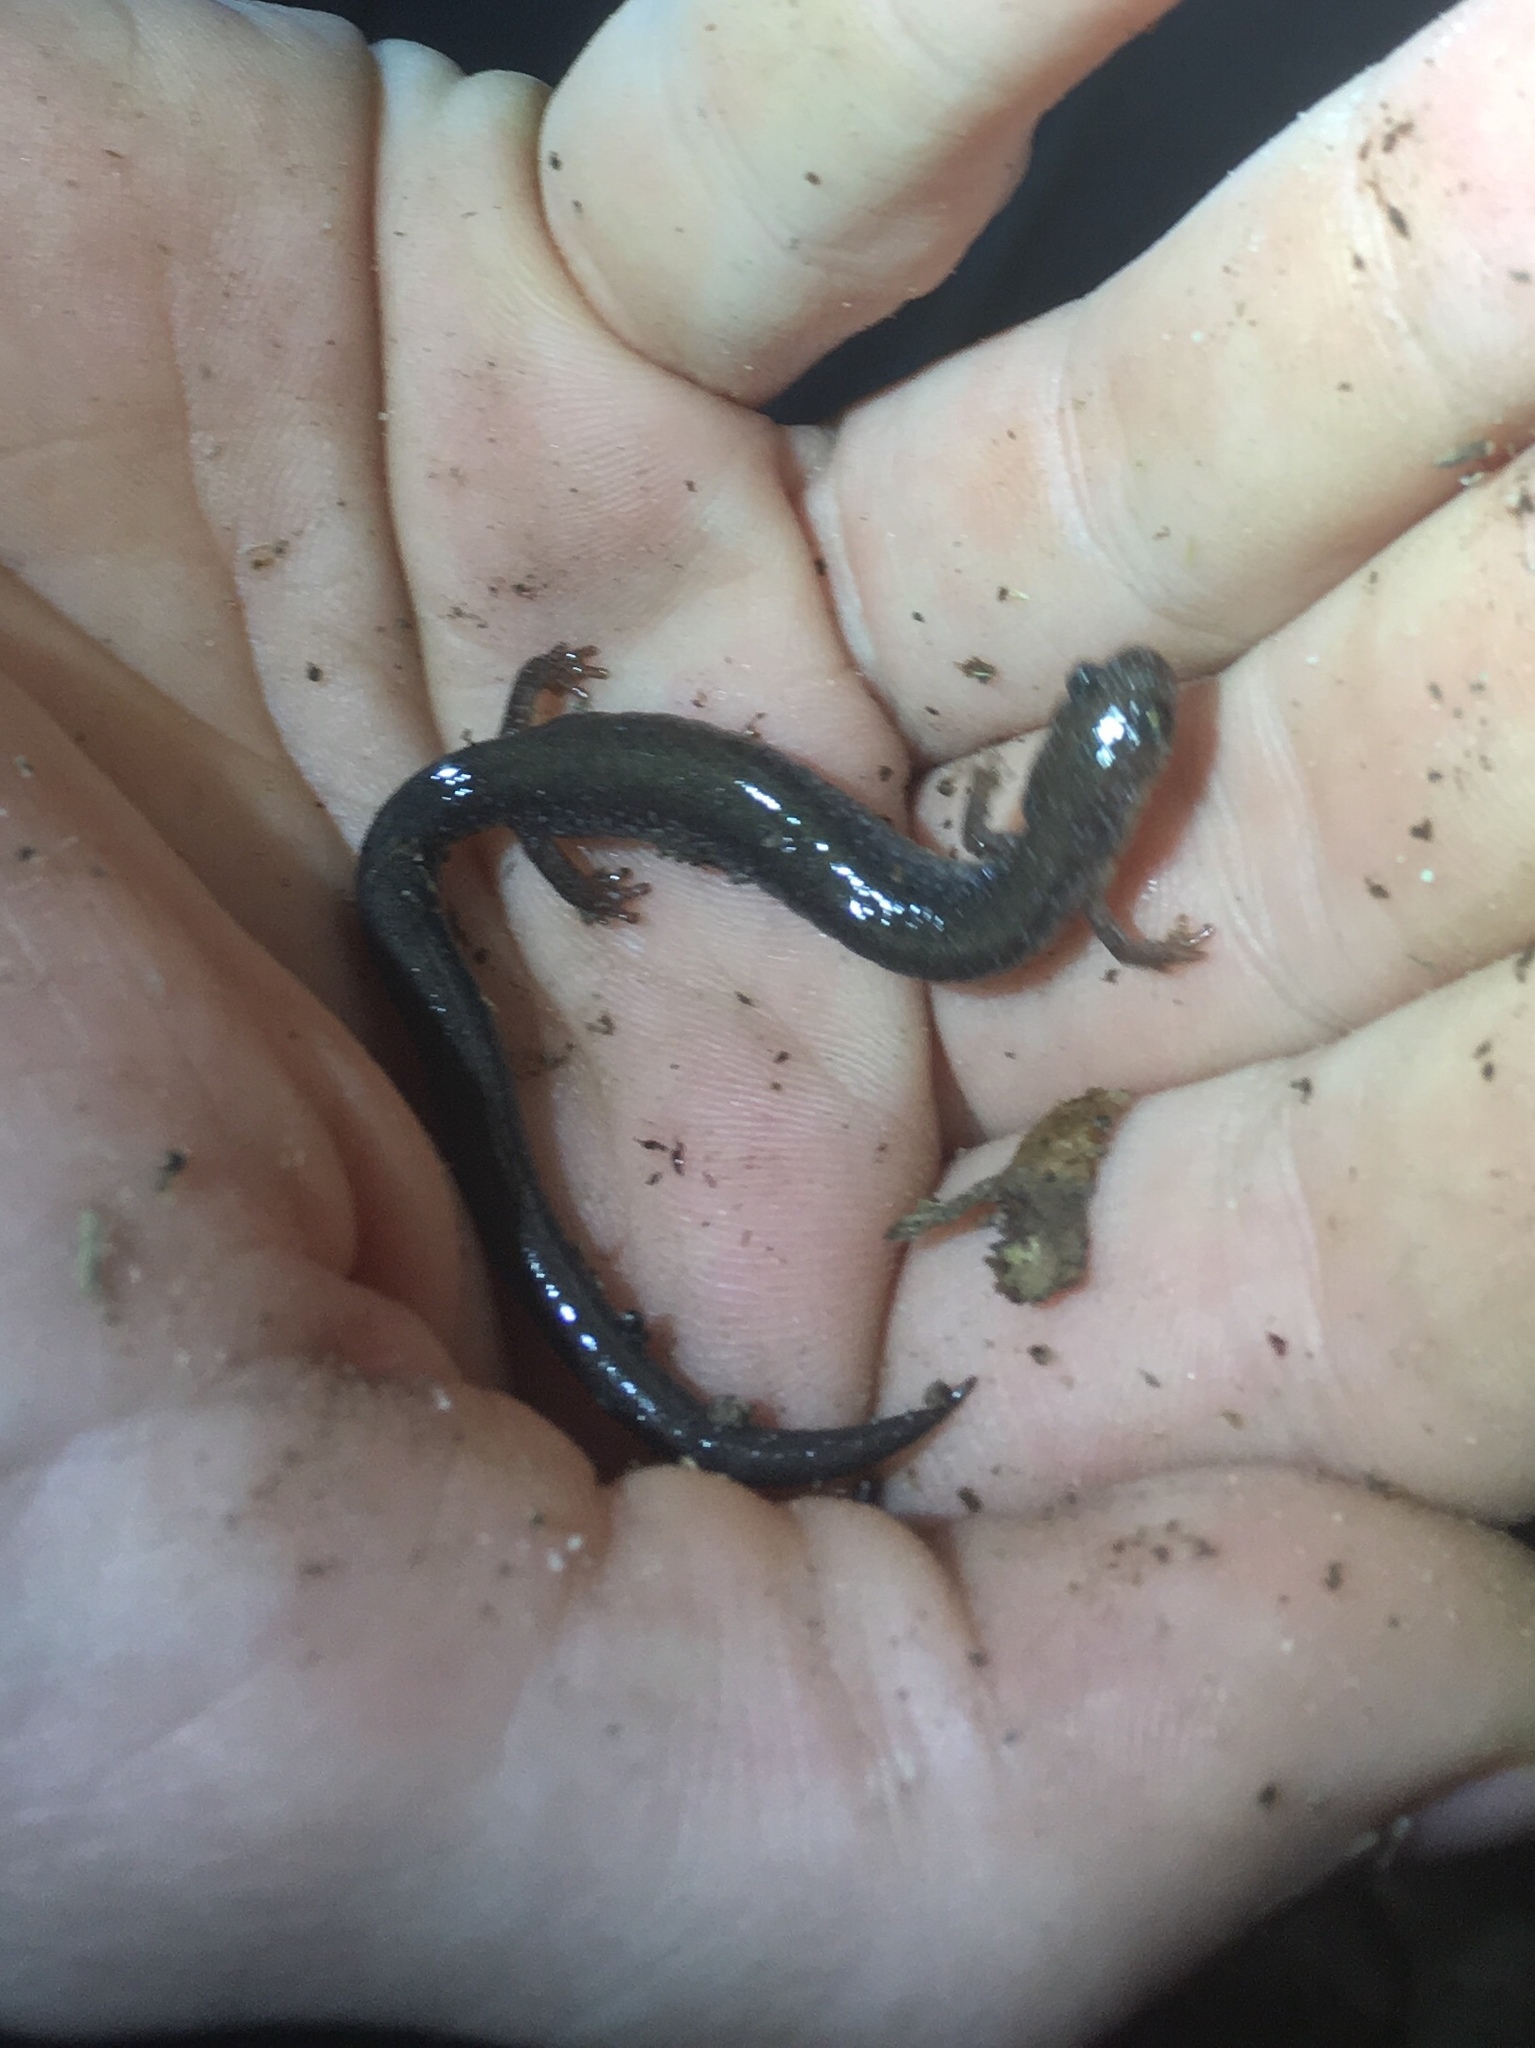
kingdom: Animalia
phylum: Chordata
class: Amphibia
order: Caudata
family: Plethodontidae
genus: Plethodon
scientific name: Plethodon cinereus
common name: Redback salamander
